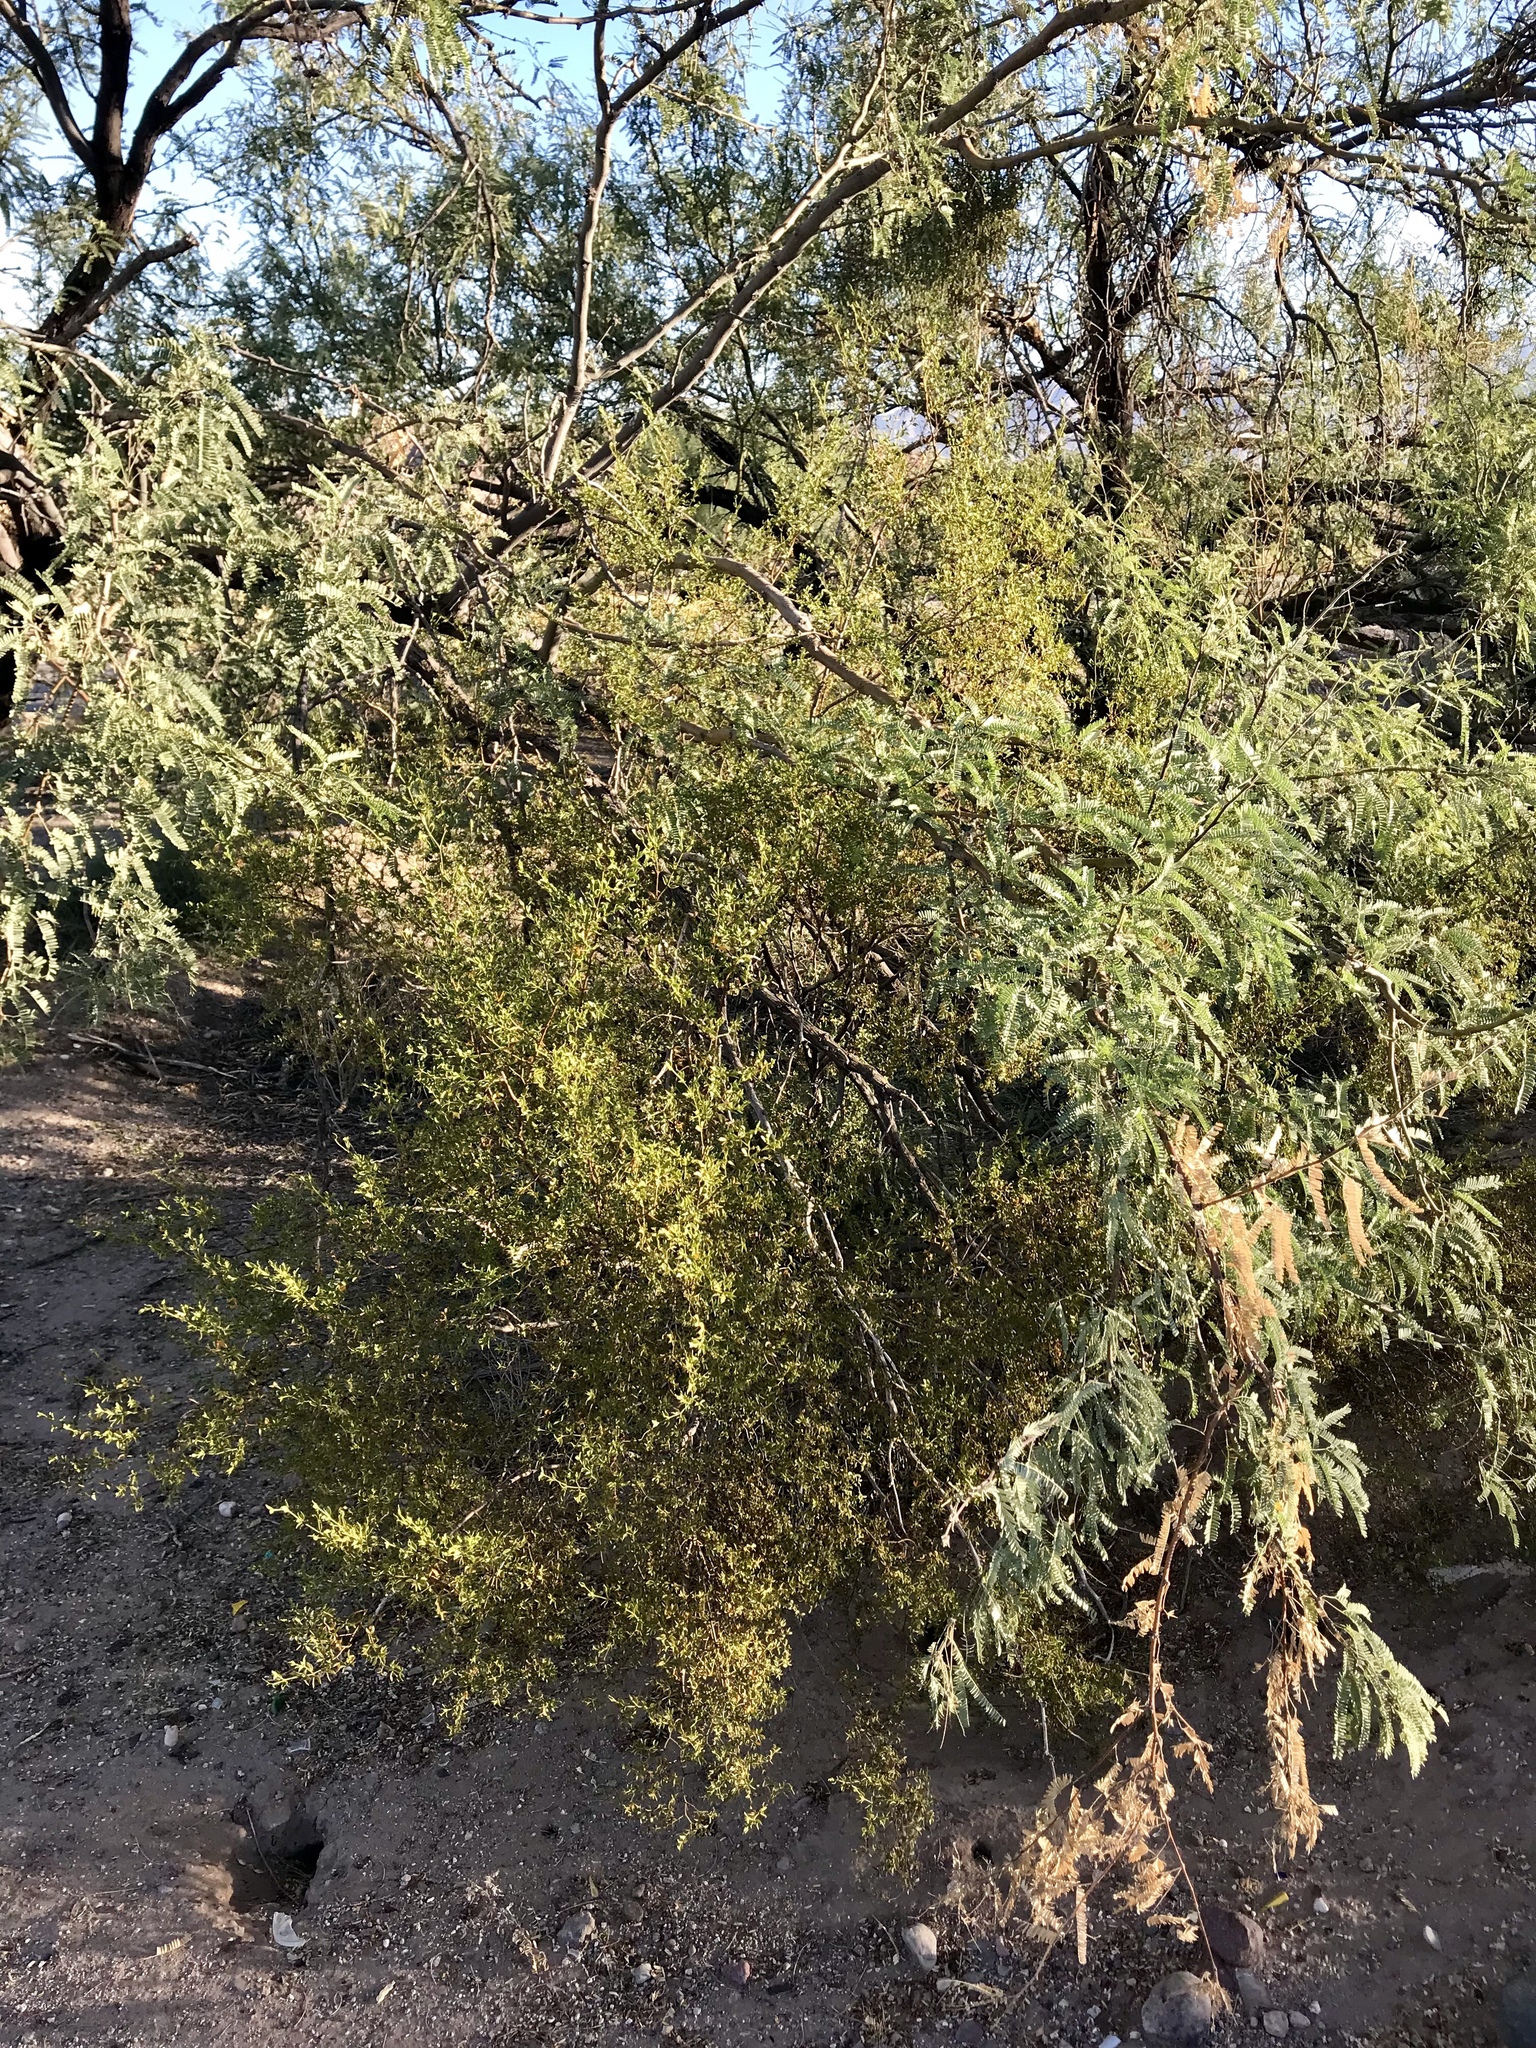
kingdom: Plantae
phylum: Tracheophyta
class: Magnoliopsida
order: Zygophyllales
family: Zygophyllaceae
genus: Larrea
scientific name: Larrea tridentata
